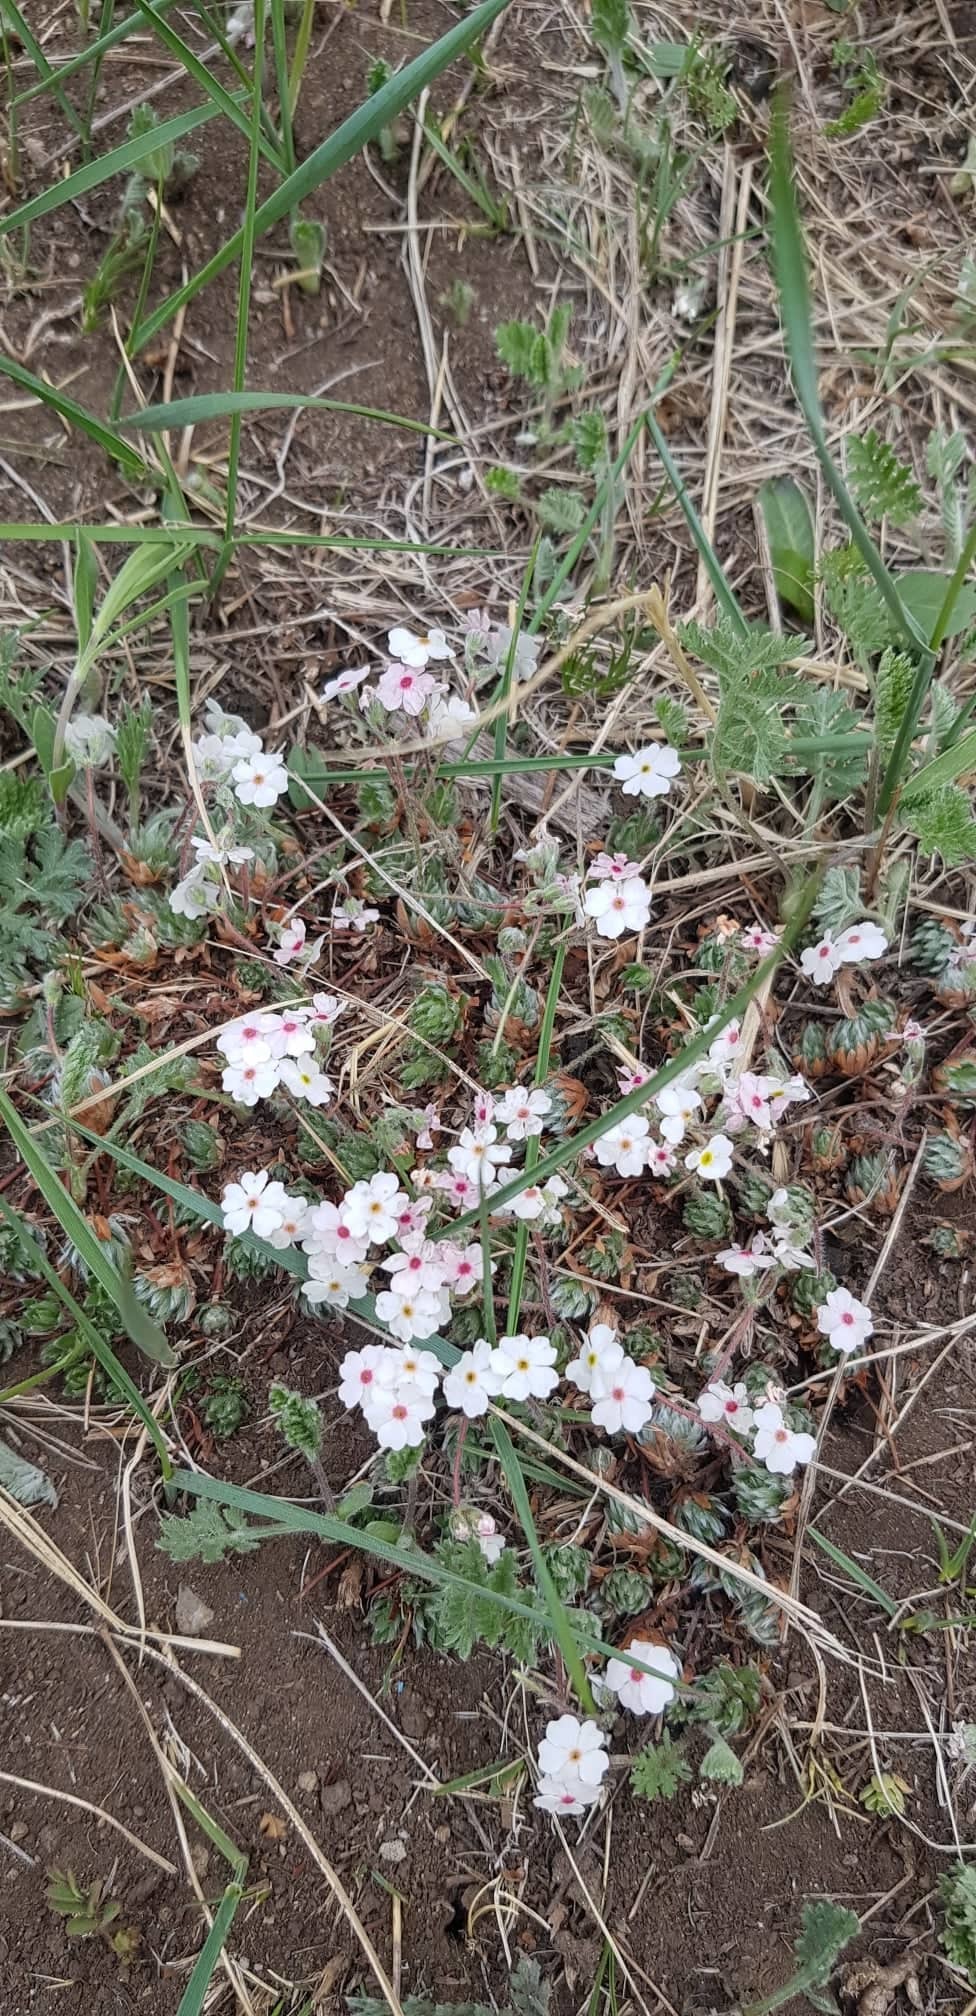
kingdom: Plantae
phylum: Tracheophyta
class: Magnoliopsida
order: Ericales
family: Primulaceae
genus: Androsace
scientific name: Androsace incana
